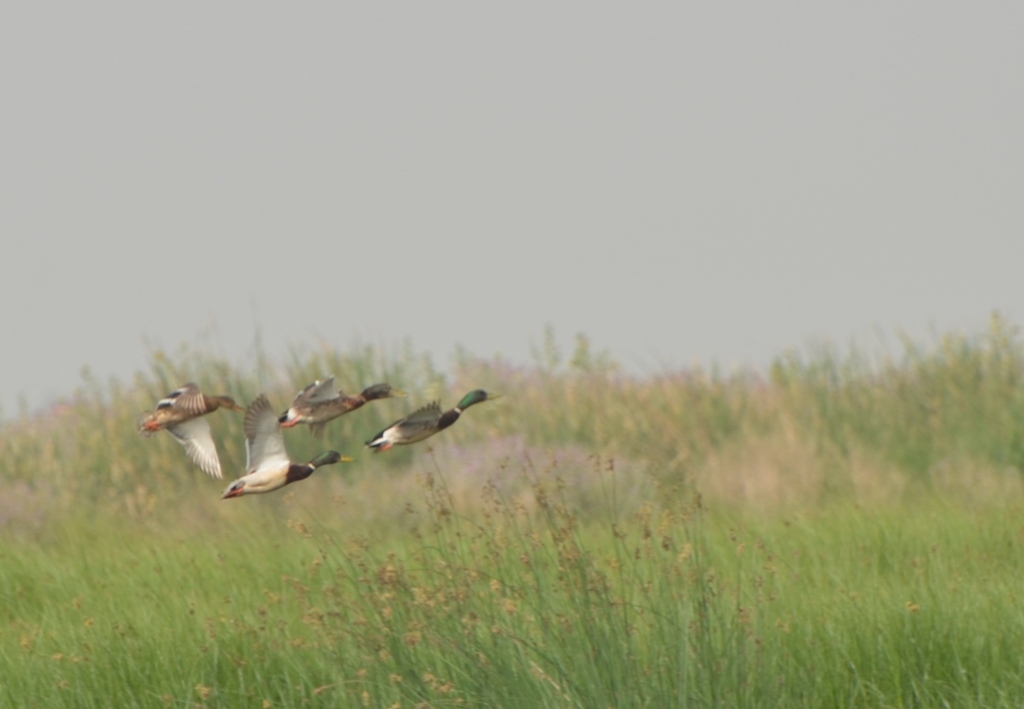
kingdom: Animalia
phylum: Chordata
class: Aves
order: Anseriformes
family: Anatidae
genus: Anas
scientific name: Anas platyrhynchos
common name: Mallard
